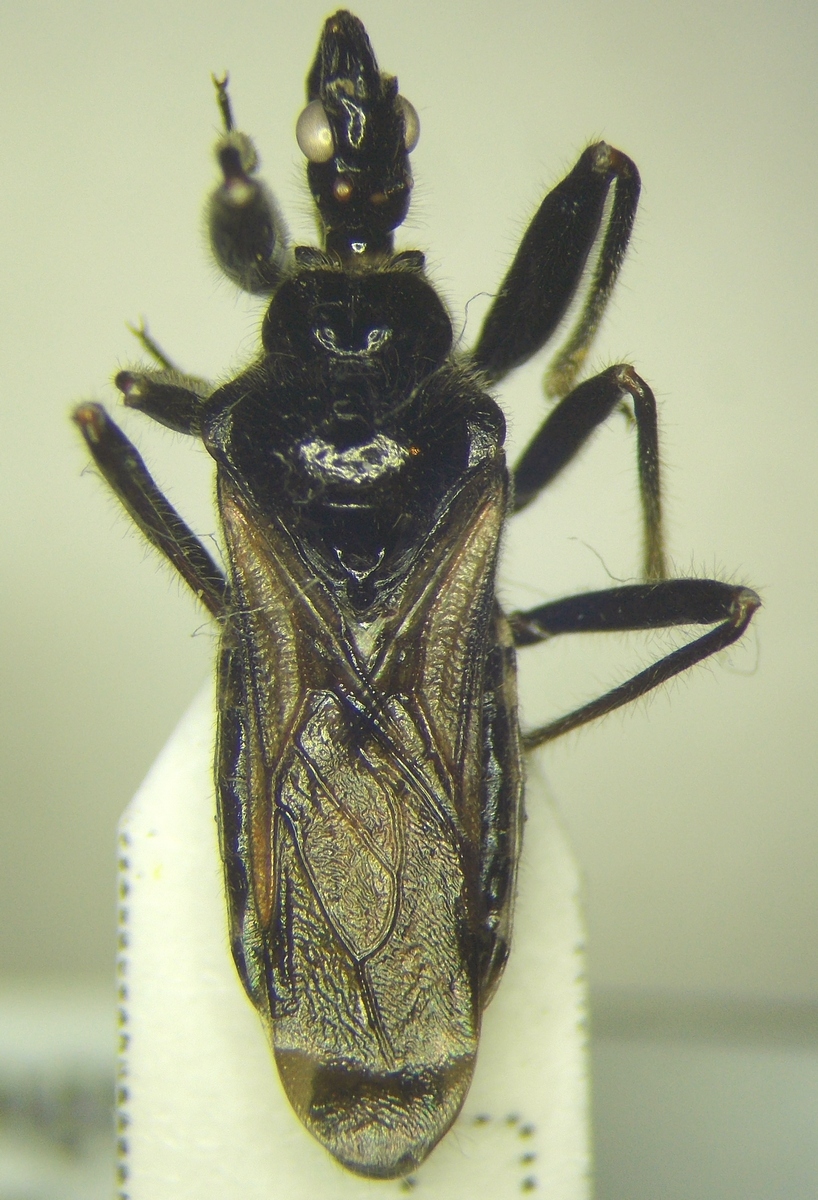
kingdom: Animalia
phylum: Arthropoda
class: Insecta
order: Hemiptera
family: Reduviidae
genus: Rhynocoris
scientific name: Rhynocoris niger
